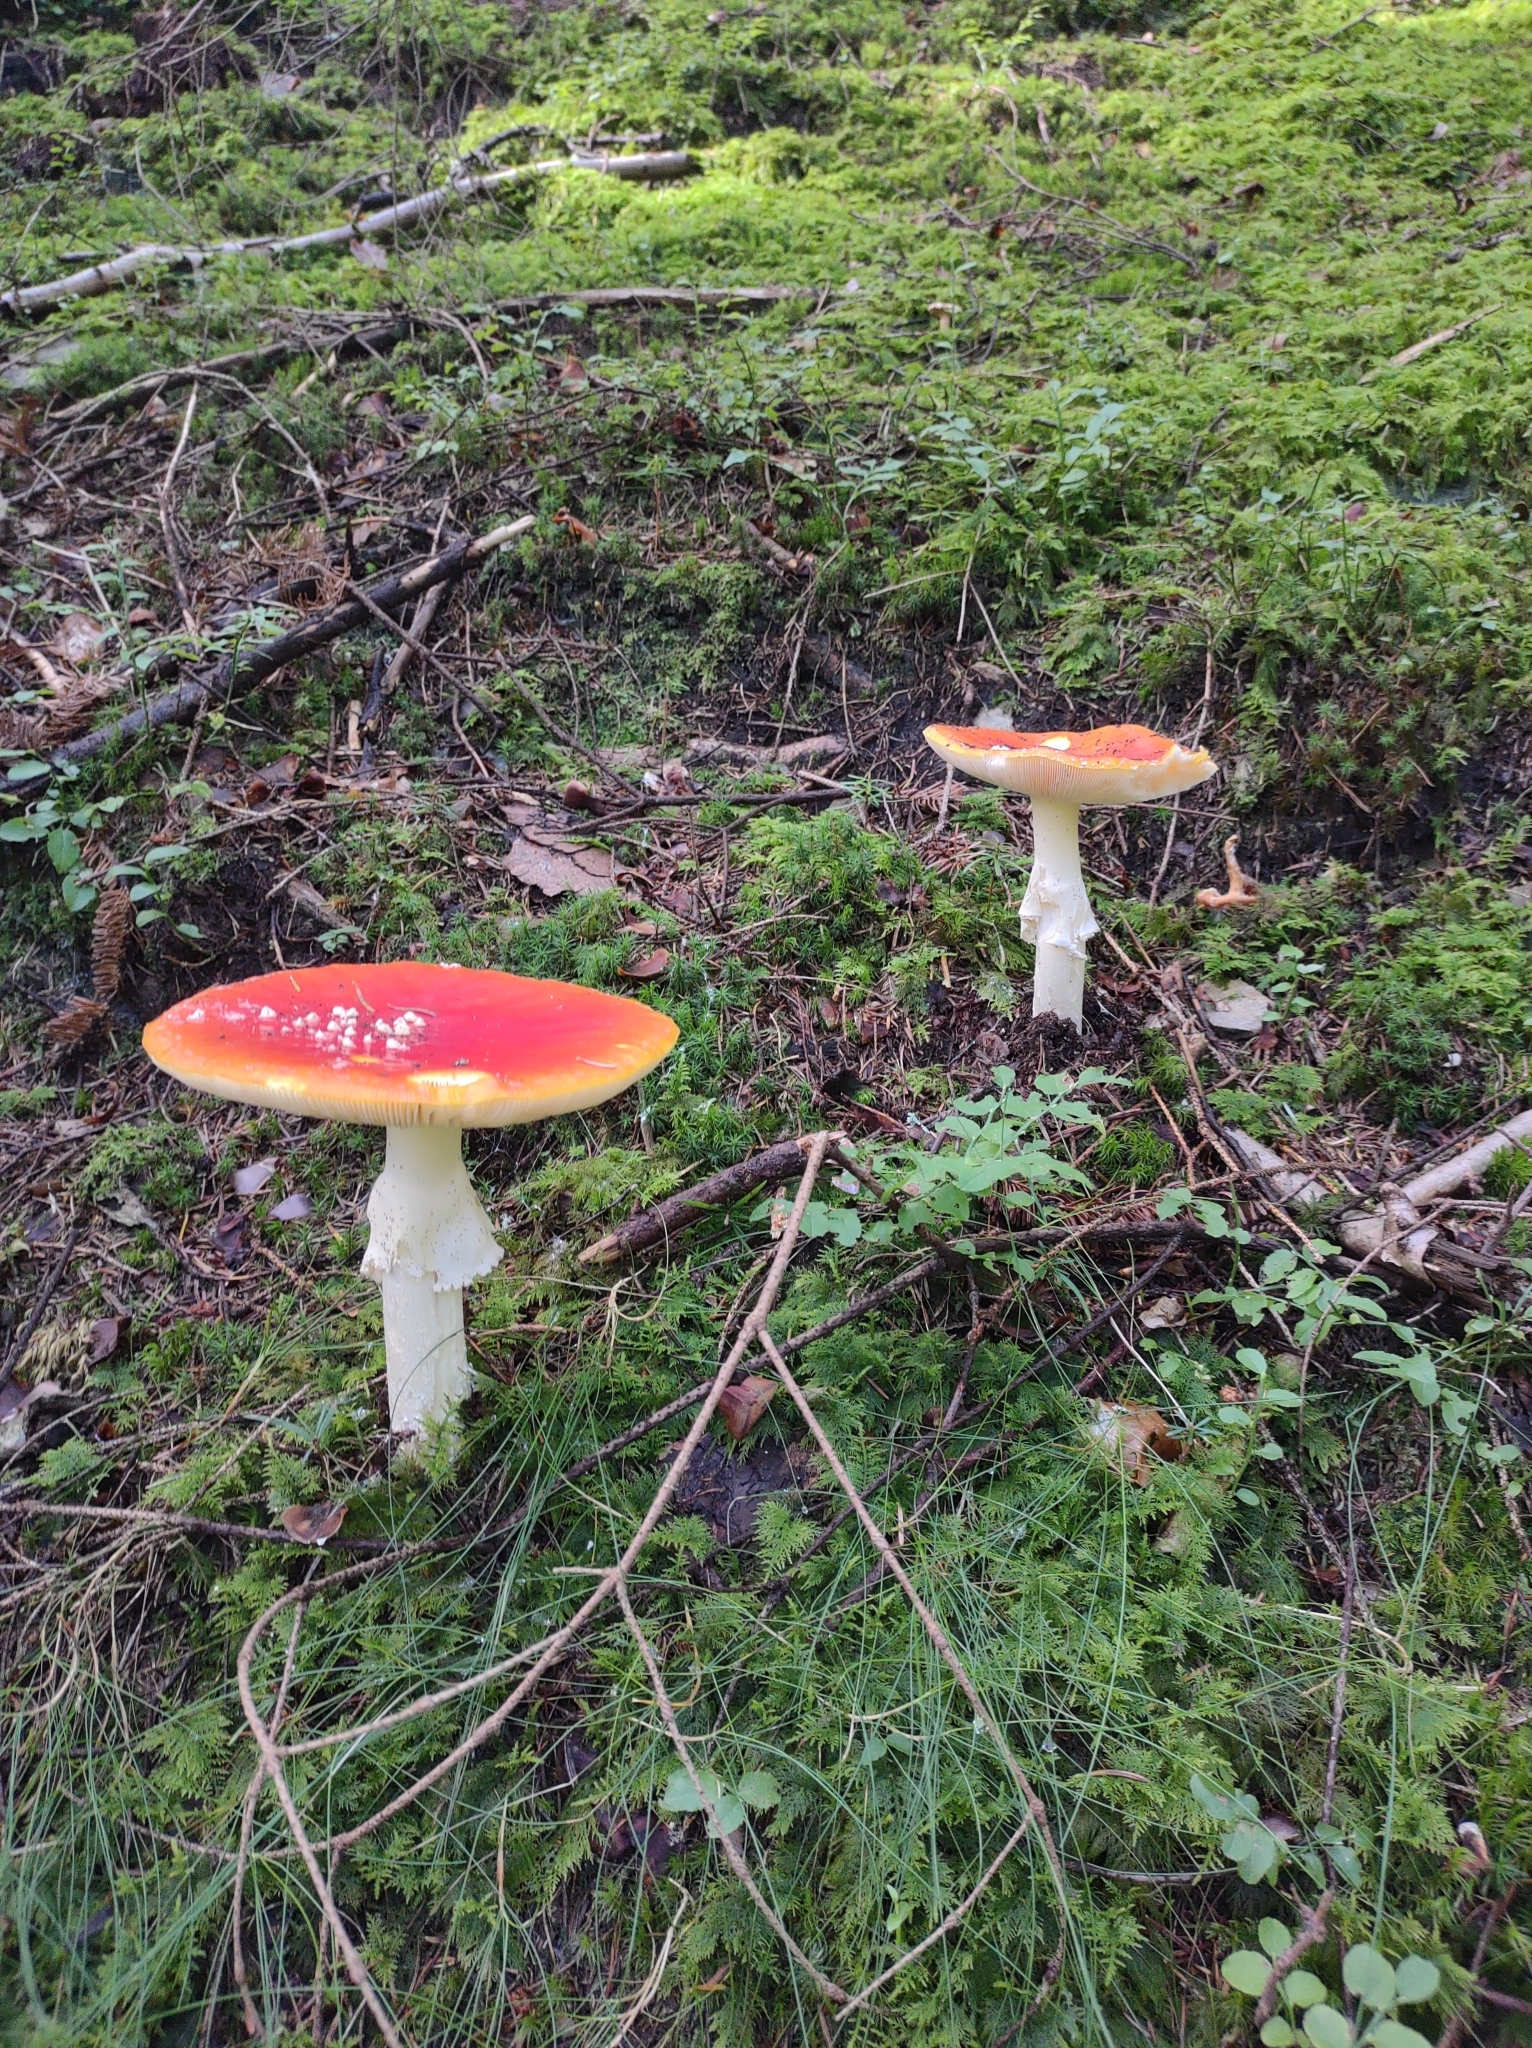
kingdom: Fungi
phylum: Basidiomycota
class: Agaricomycetes
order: Agaricales
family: Amanitaceae
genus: Amanita
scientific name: Amanita muscaria
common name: Fly agaric
